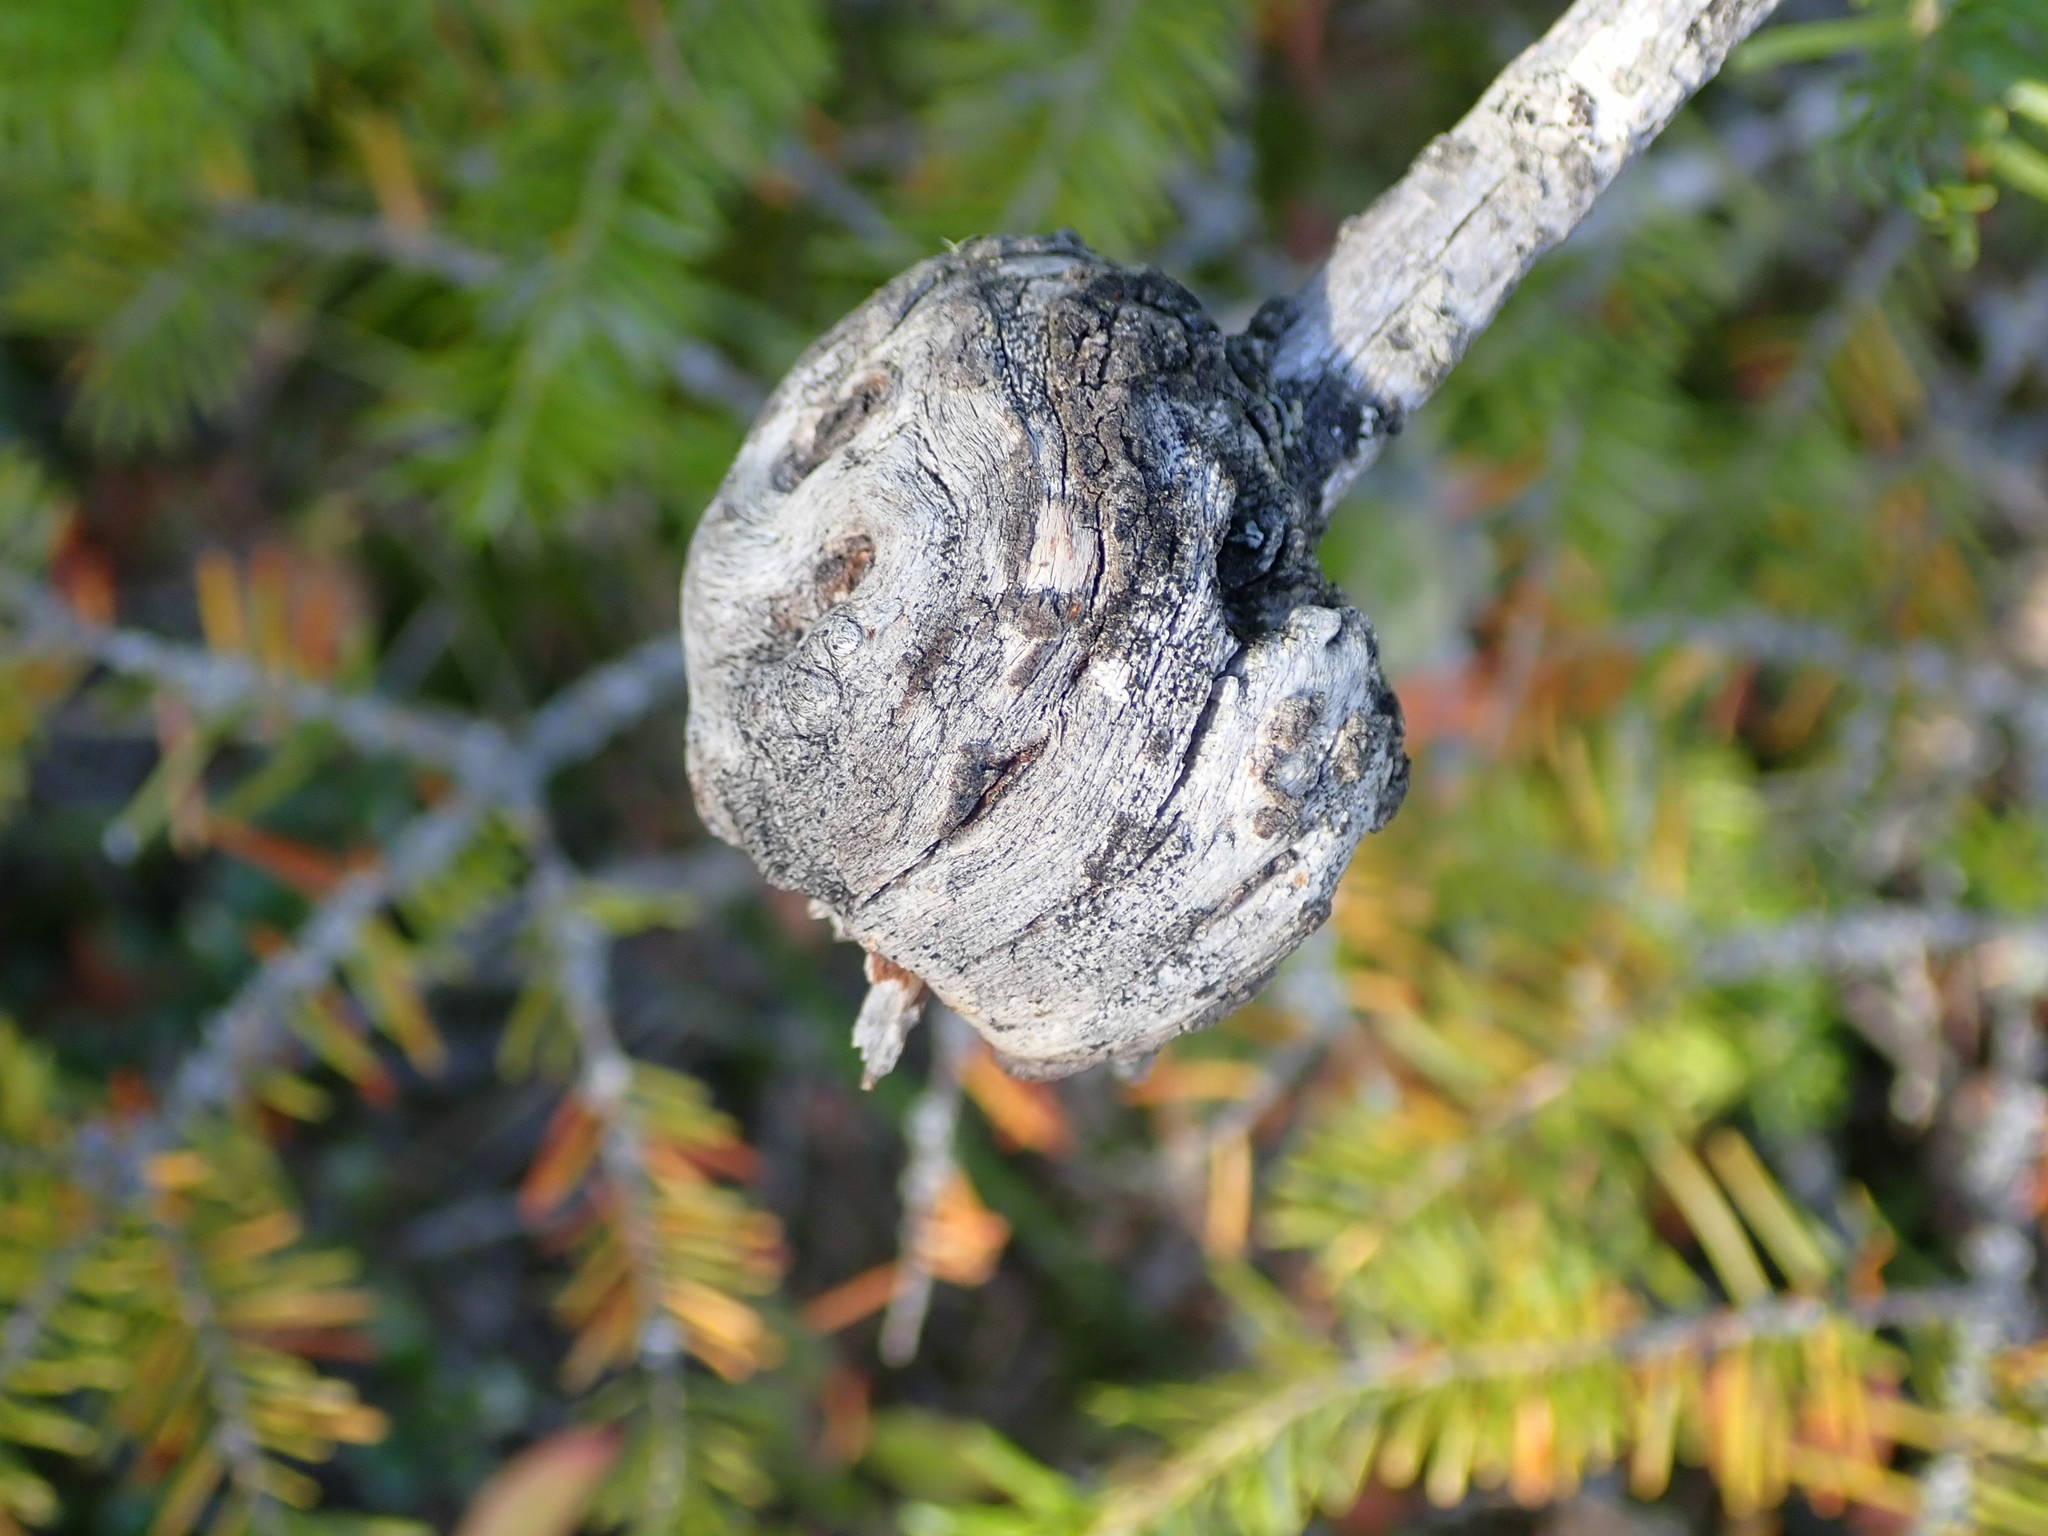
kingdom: Fungi
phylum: Basidiomycota
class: Pucciniomycetes
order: Pucciniales
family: Cronartiaceae
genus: Cronartium
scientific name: Cronartium harknessii
